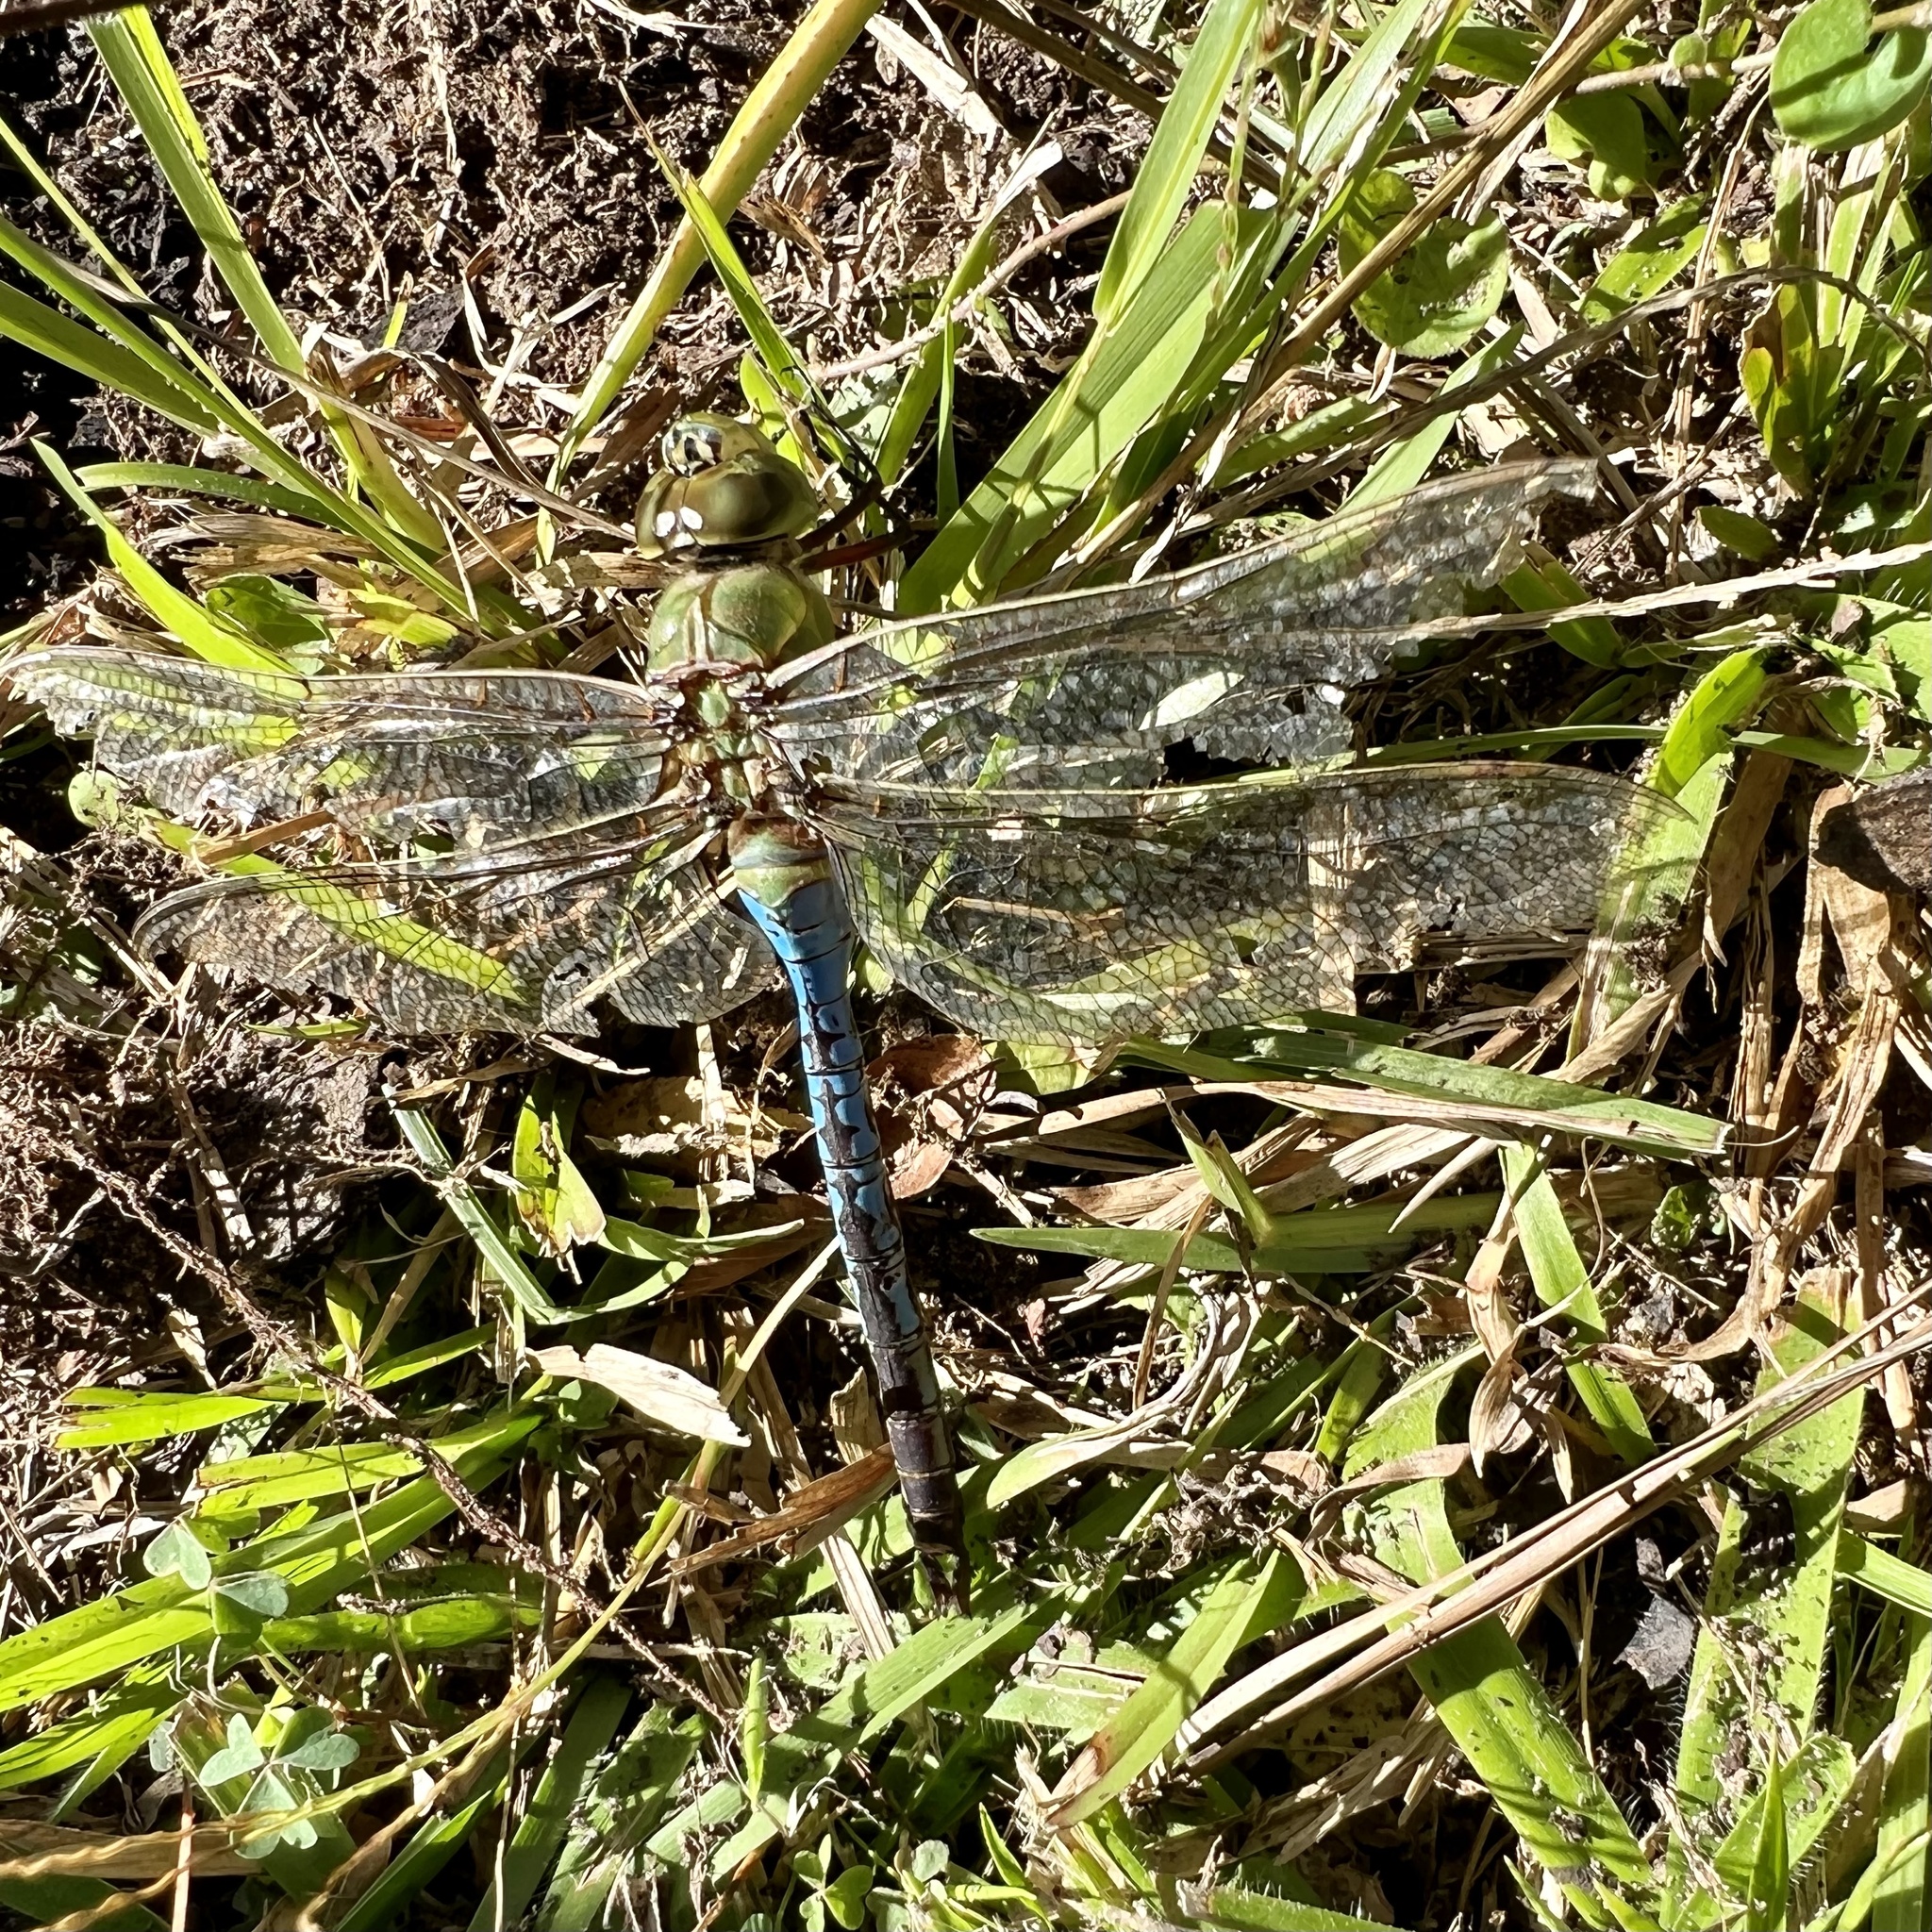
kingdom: Animalia
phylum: Arthropoda
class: Insecta
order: Odonata
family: Aeshnidae
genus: Anax
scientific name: Anax junius
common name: Common green darner
